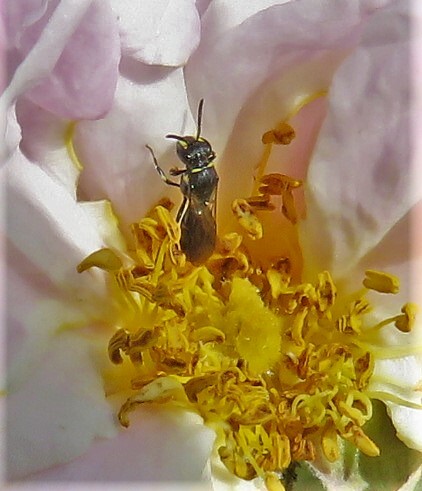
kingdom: Animalia
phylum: Arthropoda
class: Insecta
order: Hymenoptera
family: Colletidae
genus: Hylaeus
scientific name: Hylaeus modestus
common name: Yellow-faced bee
